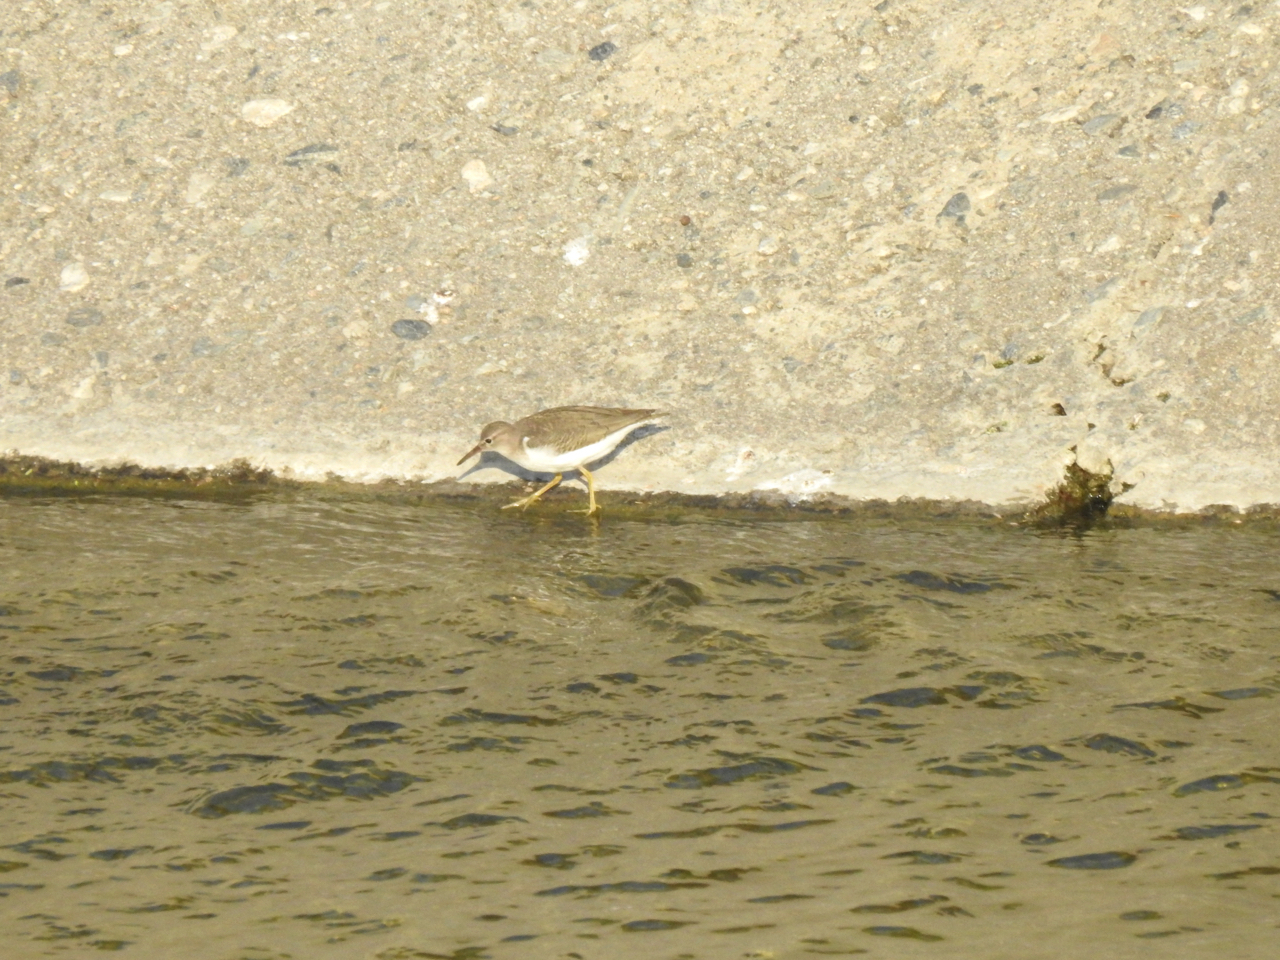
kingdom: Animalia
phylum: Chordata
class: Aves
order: Charadriiformes
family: Scolopacidae
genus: Actitis
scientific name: Actitis macularius
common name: Spotted sandpiper
